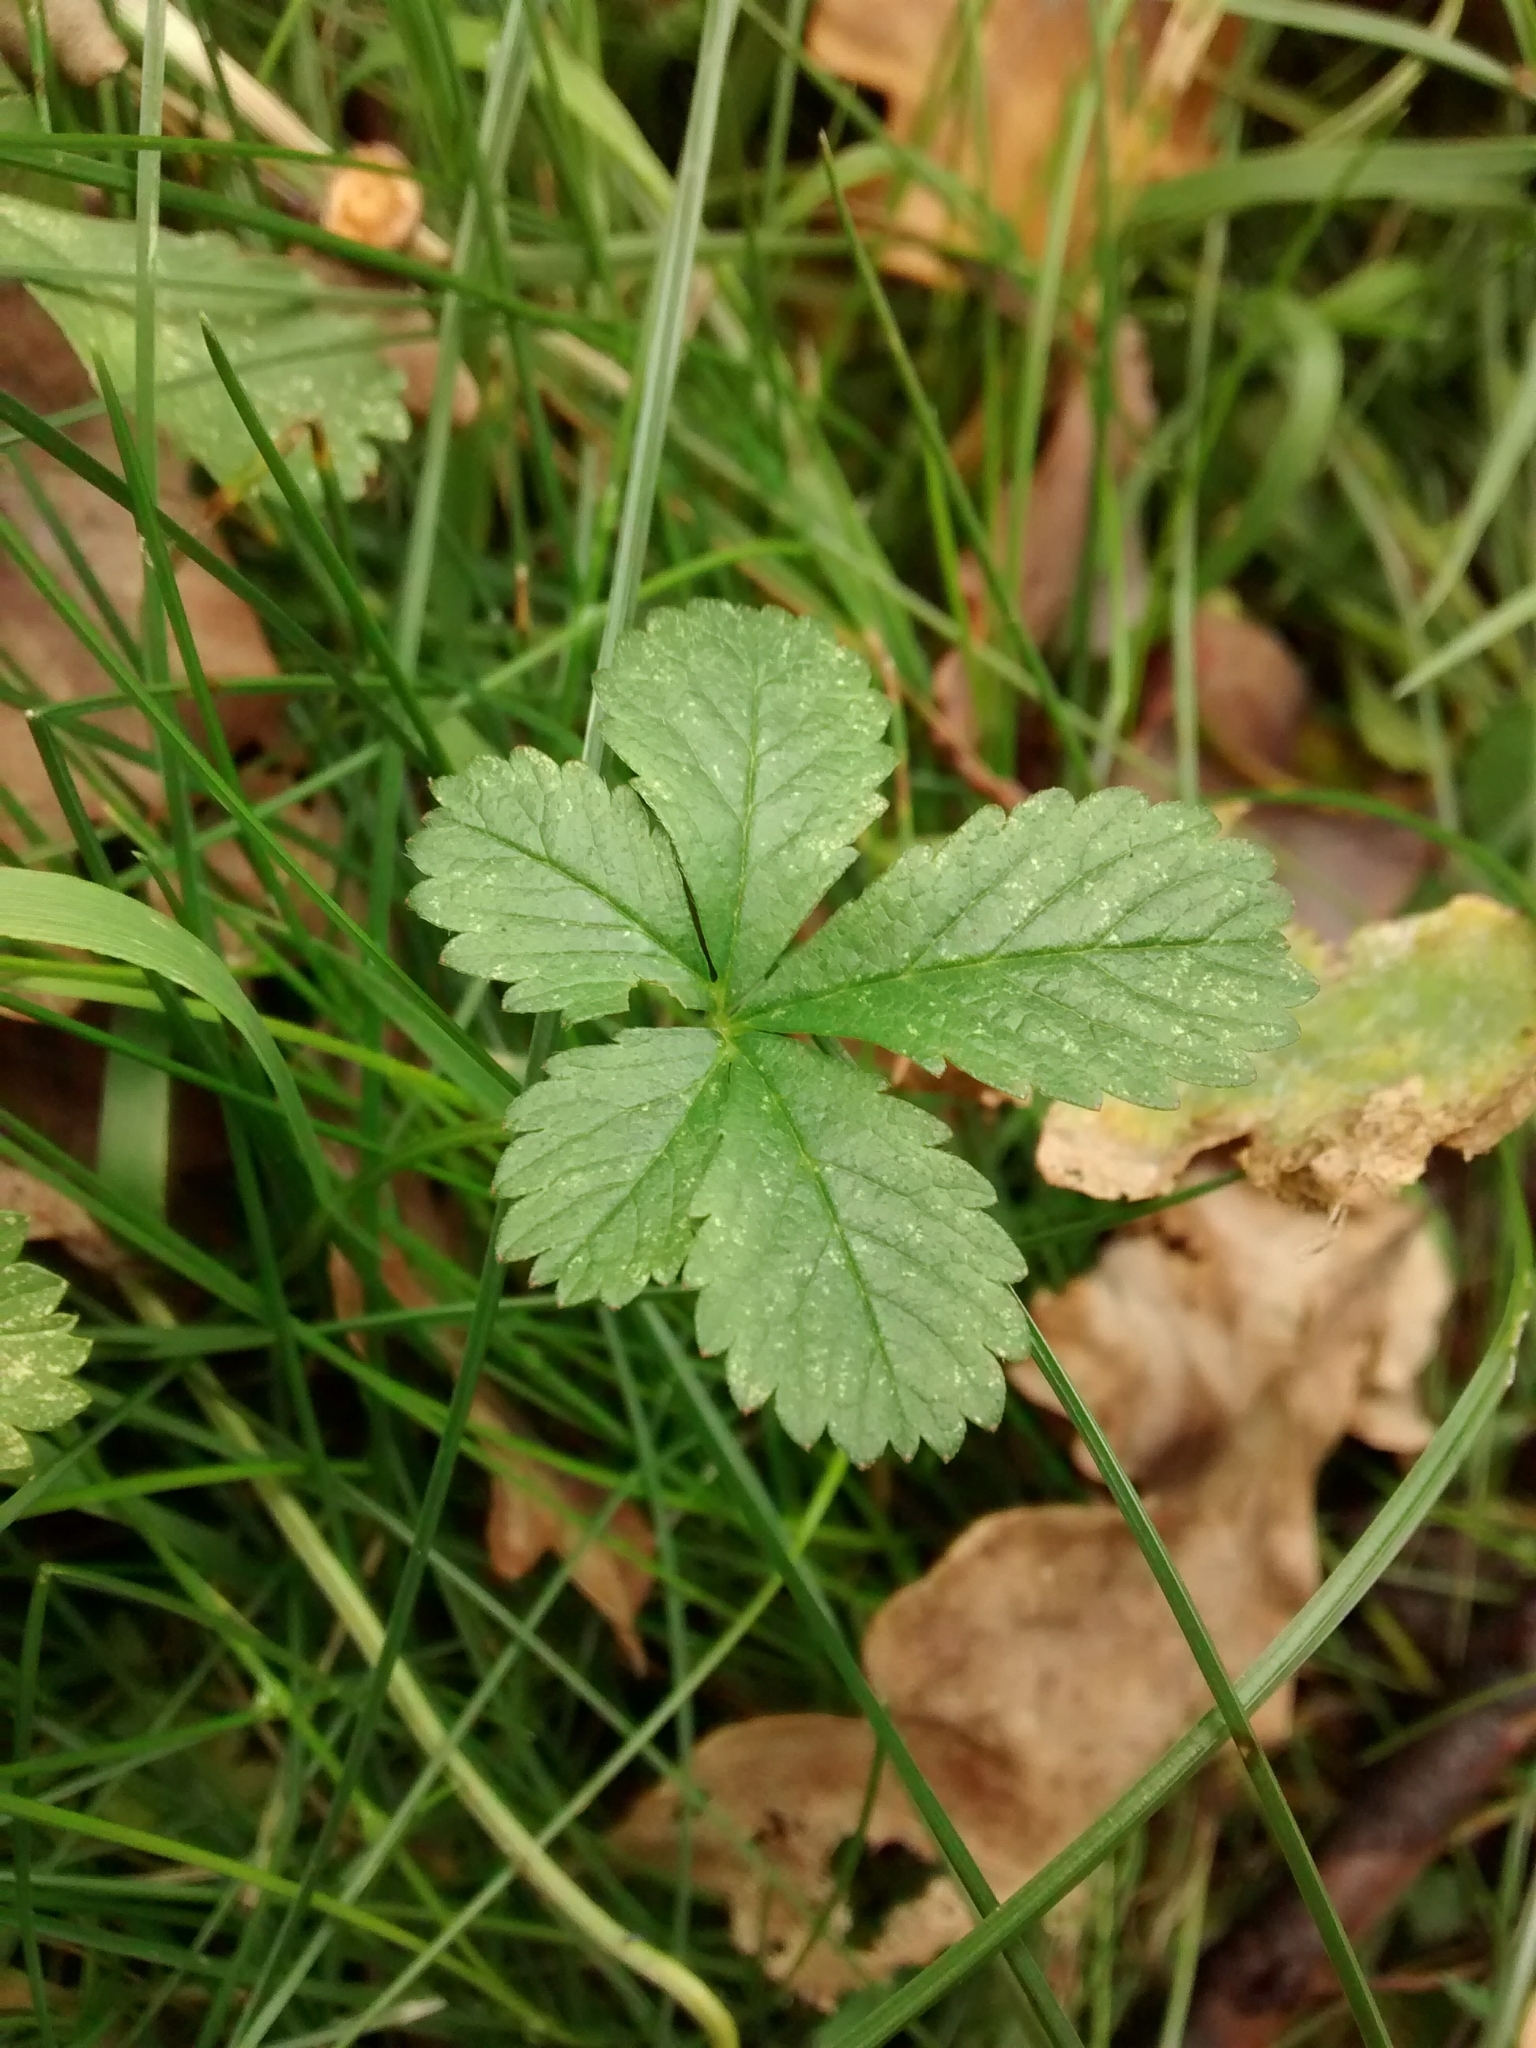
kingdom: Plantae
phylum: Tracheophyta
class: Magnoliopsida
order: Rosales
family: Rosaceae
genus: Potentilla
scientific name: Potentilla reptans
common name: Creeping cinquefoil
